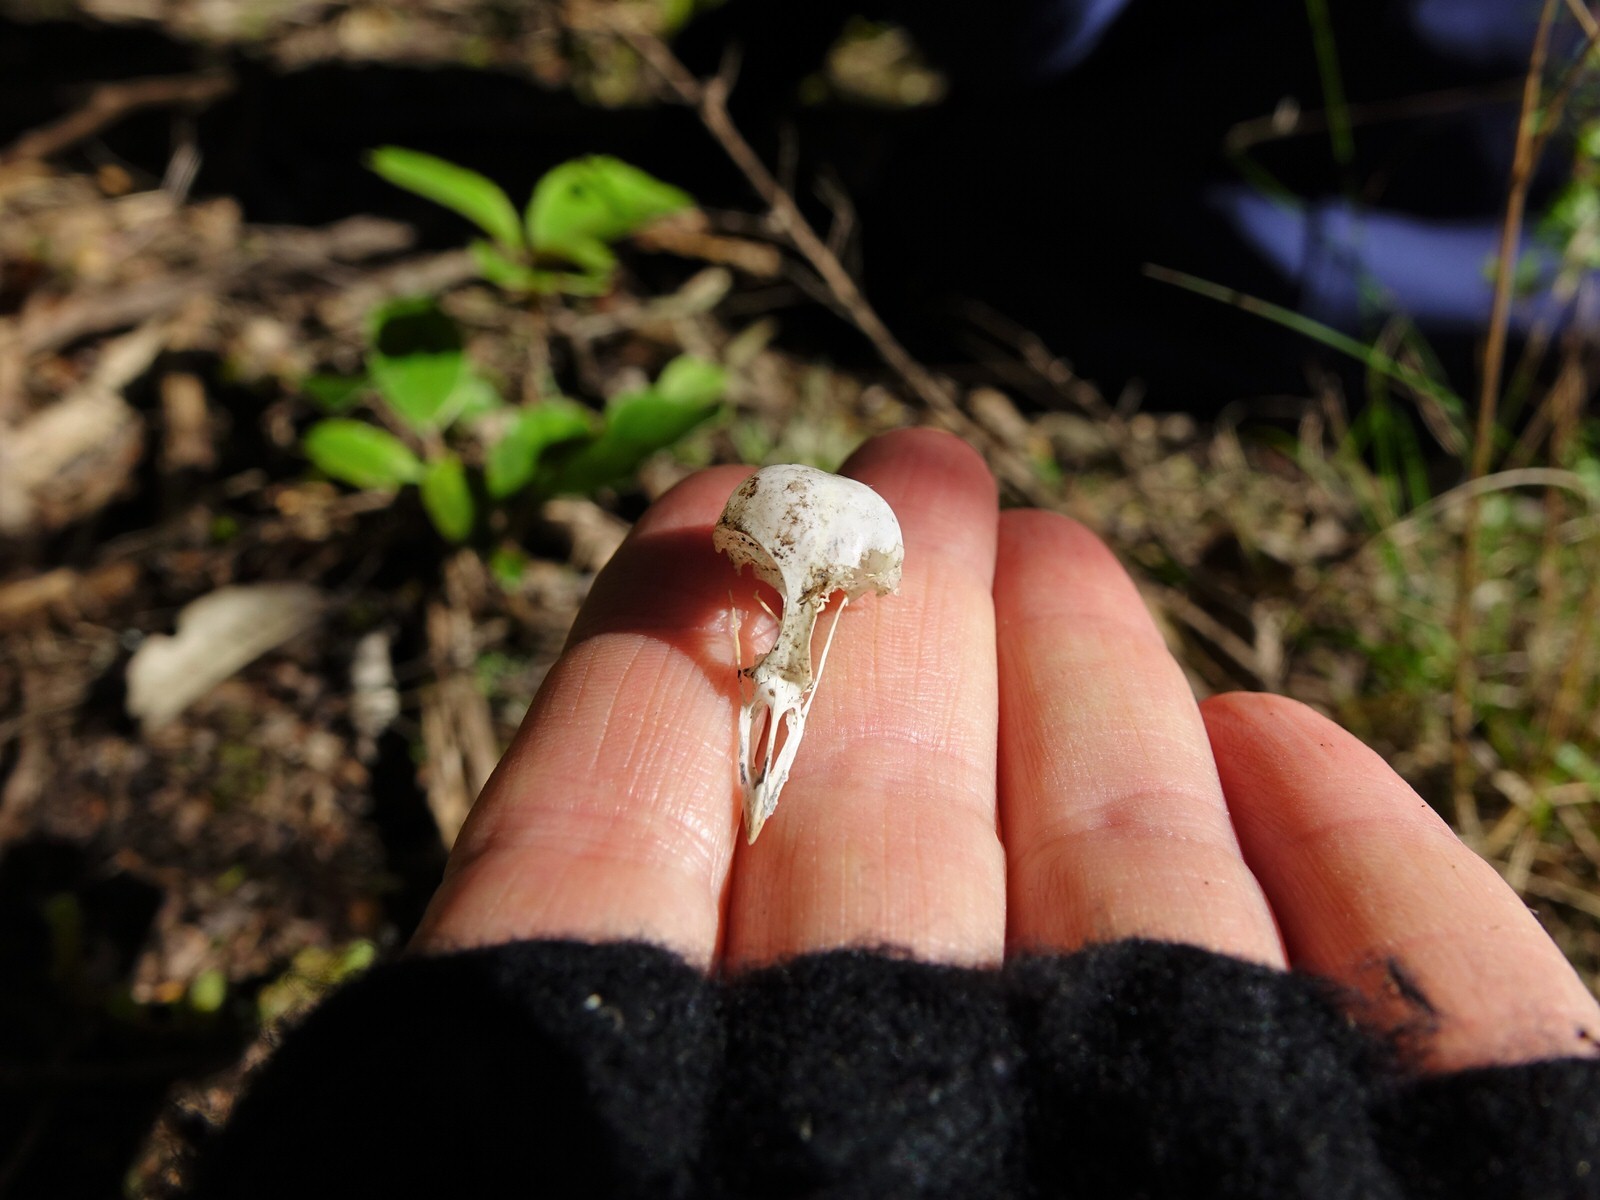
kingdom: Animalia
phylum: Chordata
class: Aves
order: Passeriformes
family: Petroicidae
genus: Petroica
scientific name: Petroica macrocephala
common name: Tomtit
